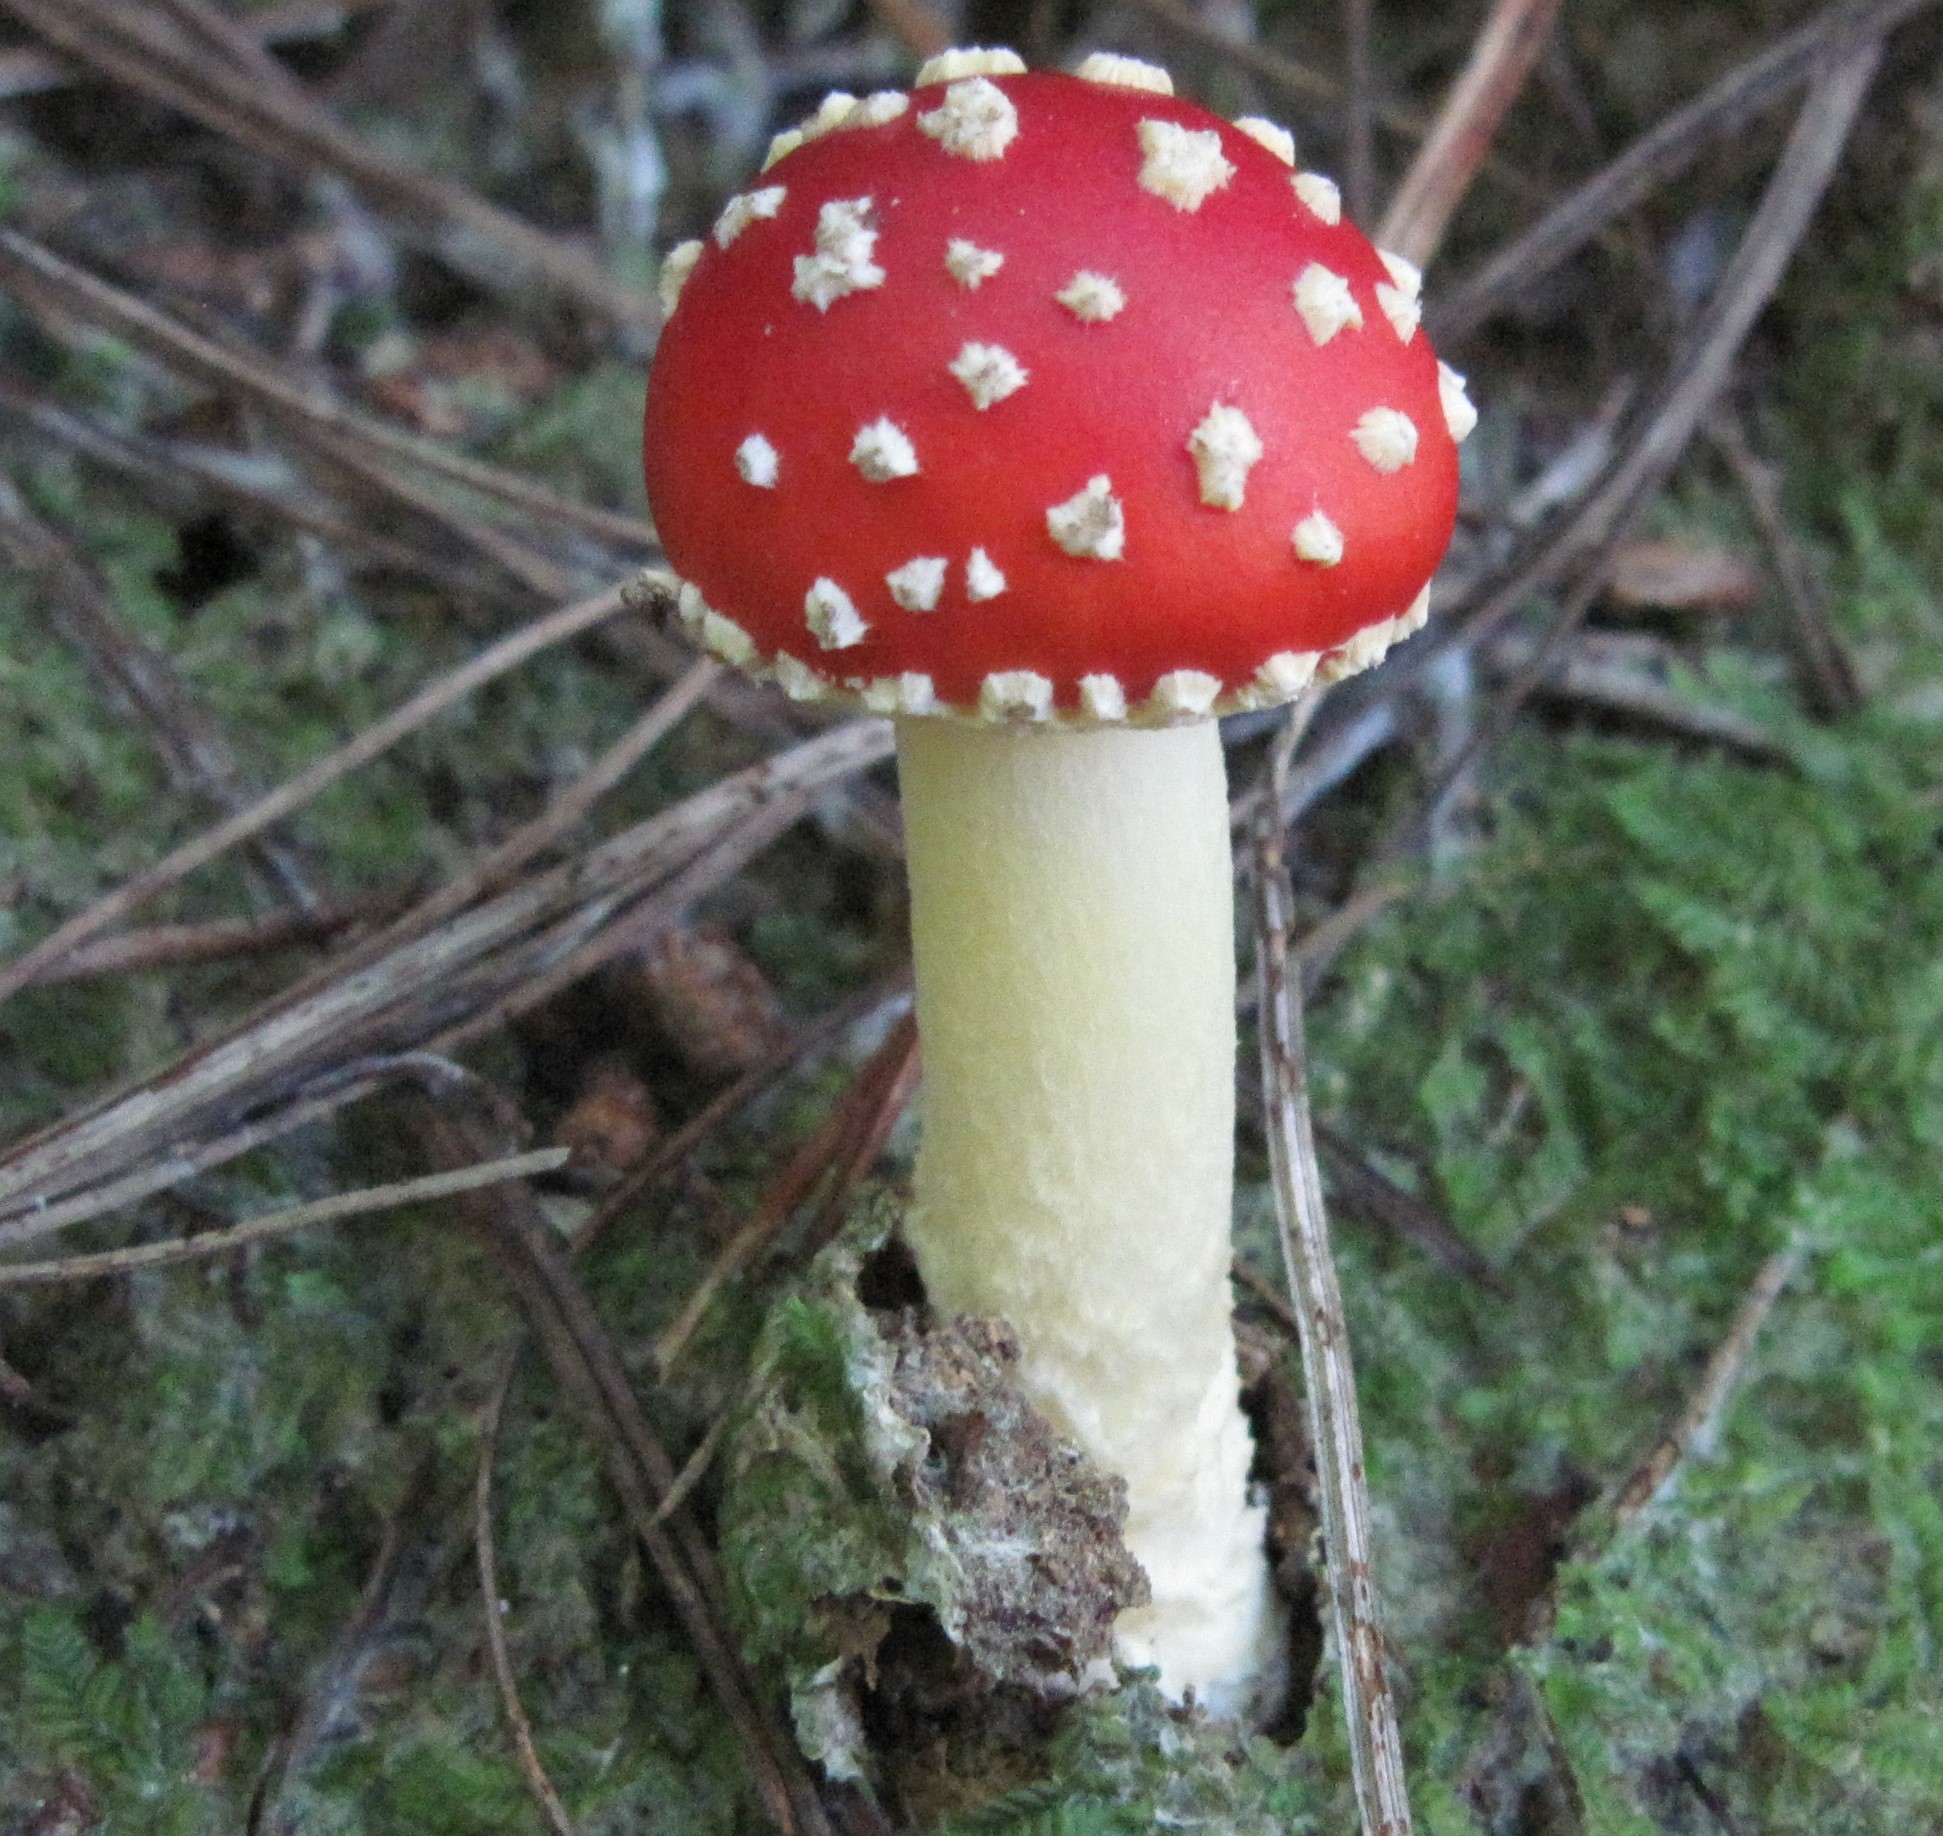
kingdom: Fungi
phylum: Basidiomycota
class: Agaricomycetes
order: Agaricales
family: Amanitaceae
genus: Amanita
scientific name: Amanita muscaria
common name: Fly agaric
